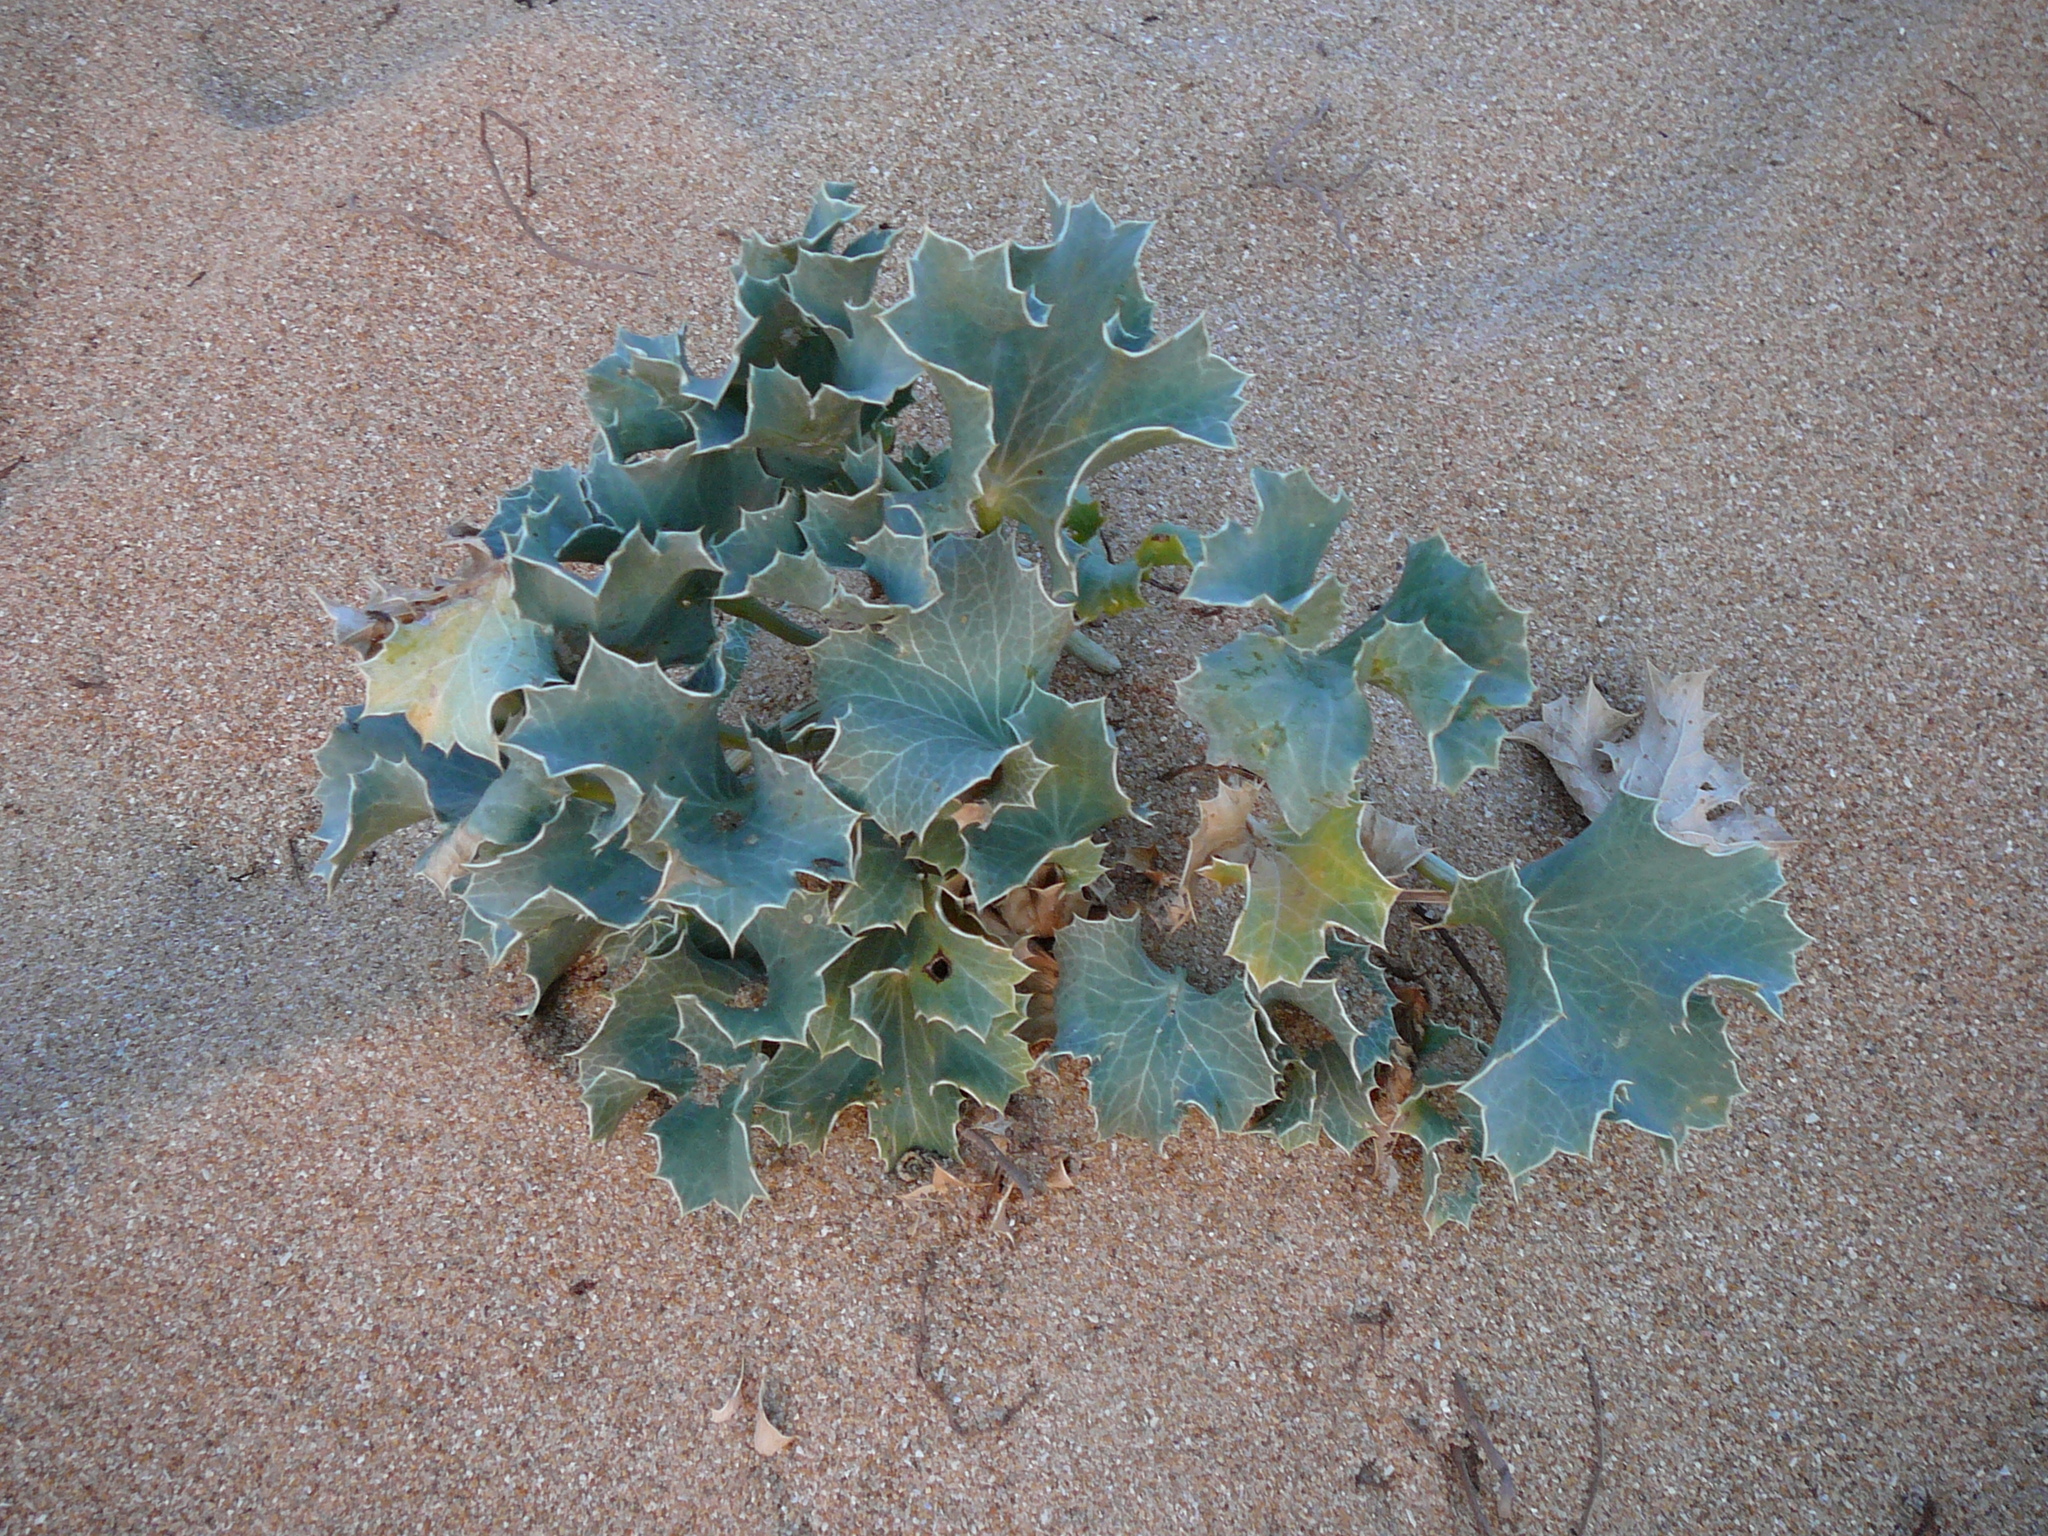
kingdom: Plantae
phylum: Tracheophyta
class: Magnoliopsida
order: Apiales
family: Apiaceae
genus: Eryngium
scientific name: Eryngium maritimum
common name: Sea-holly
